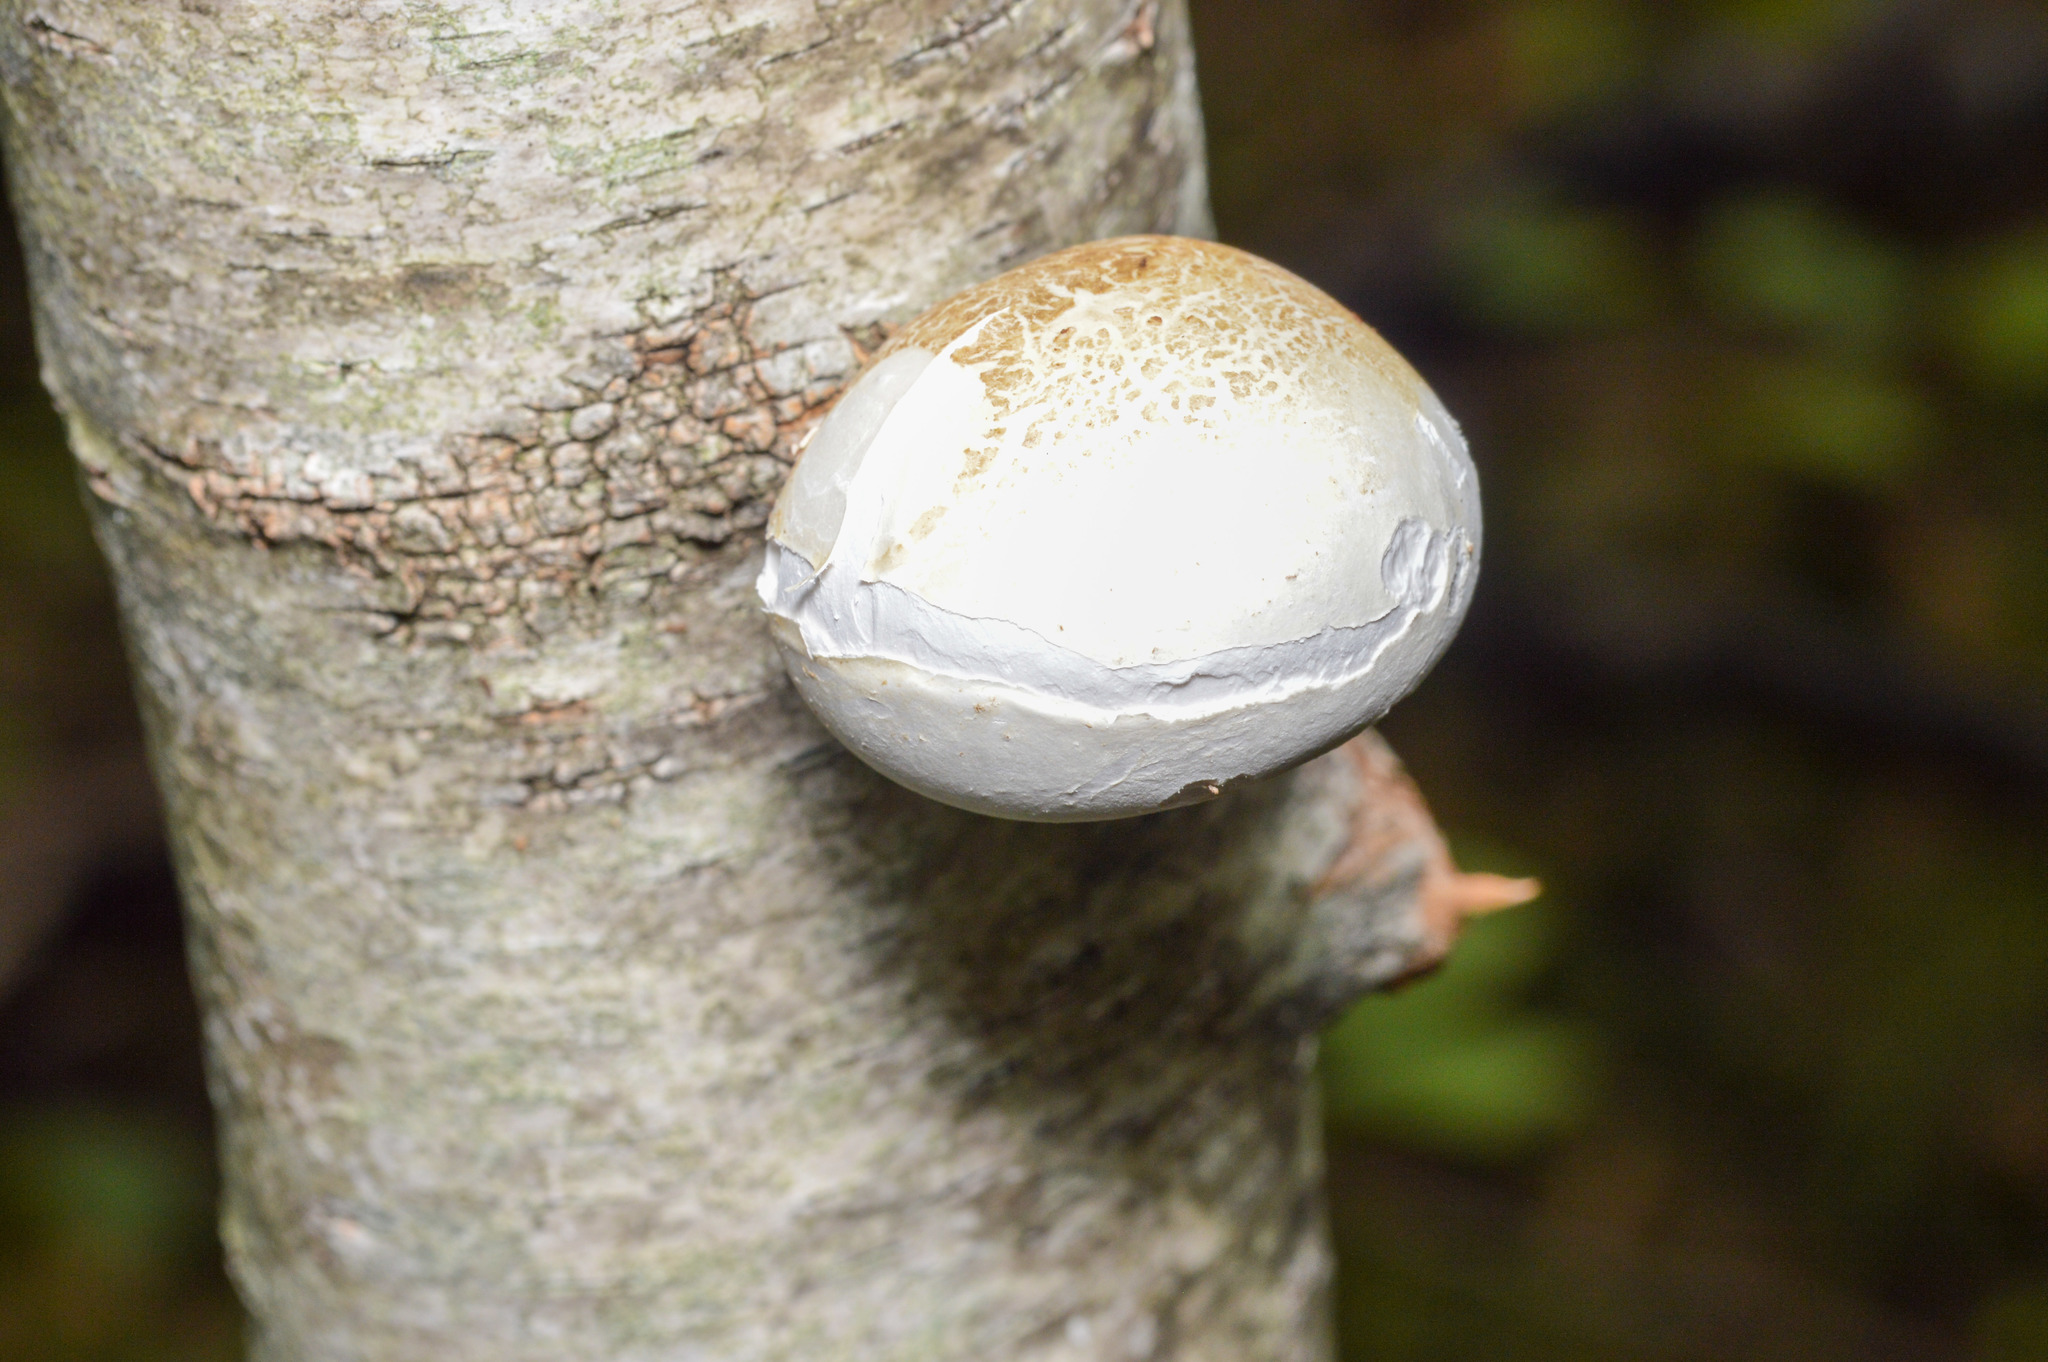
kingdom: Fungi
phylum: Basidiomycota
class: Agaricomycetes
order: Polyporales
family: Fomitopsidaceae
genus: Fomitopsis
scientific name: Fomitopsis betulina
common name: Birch polypore
